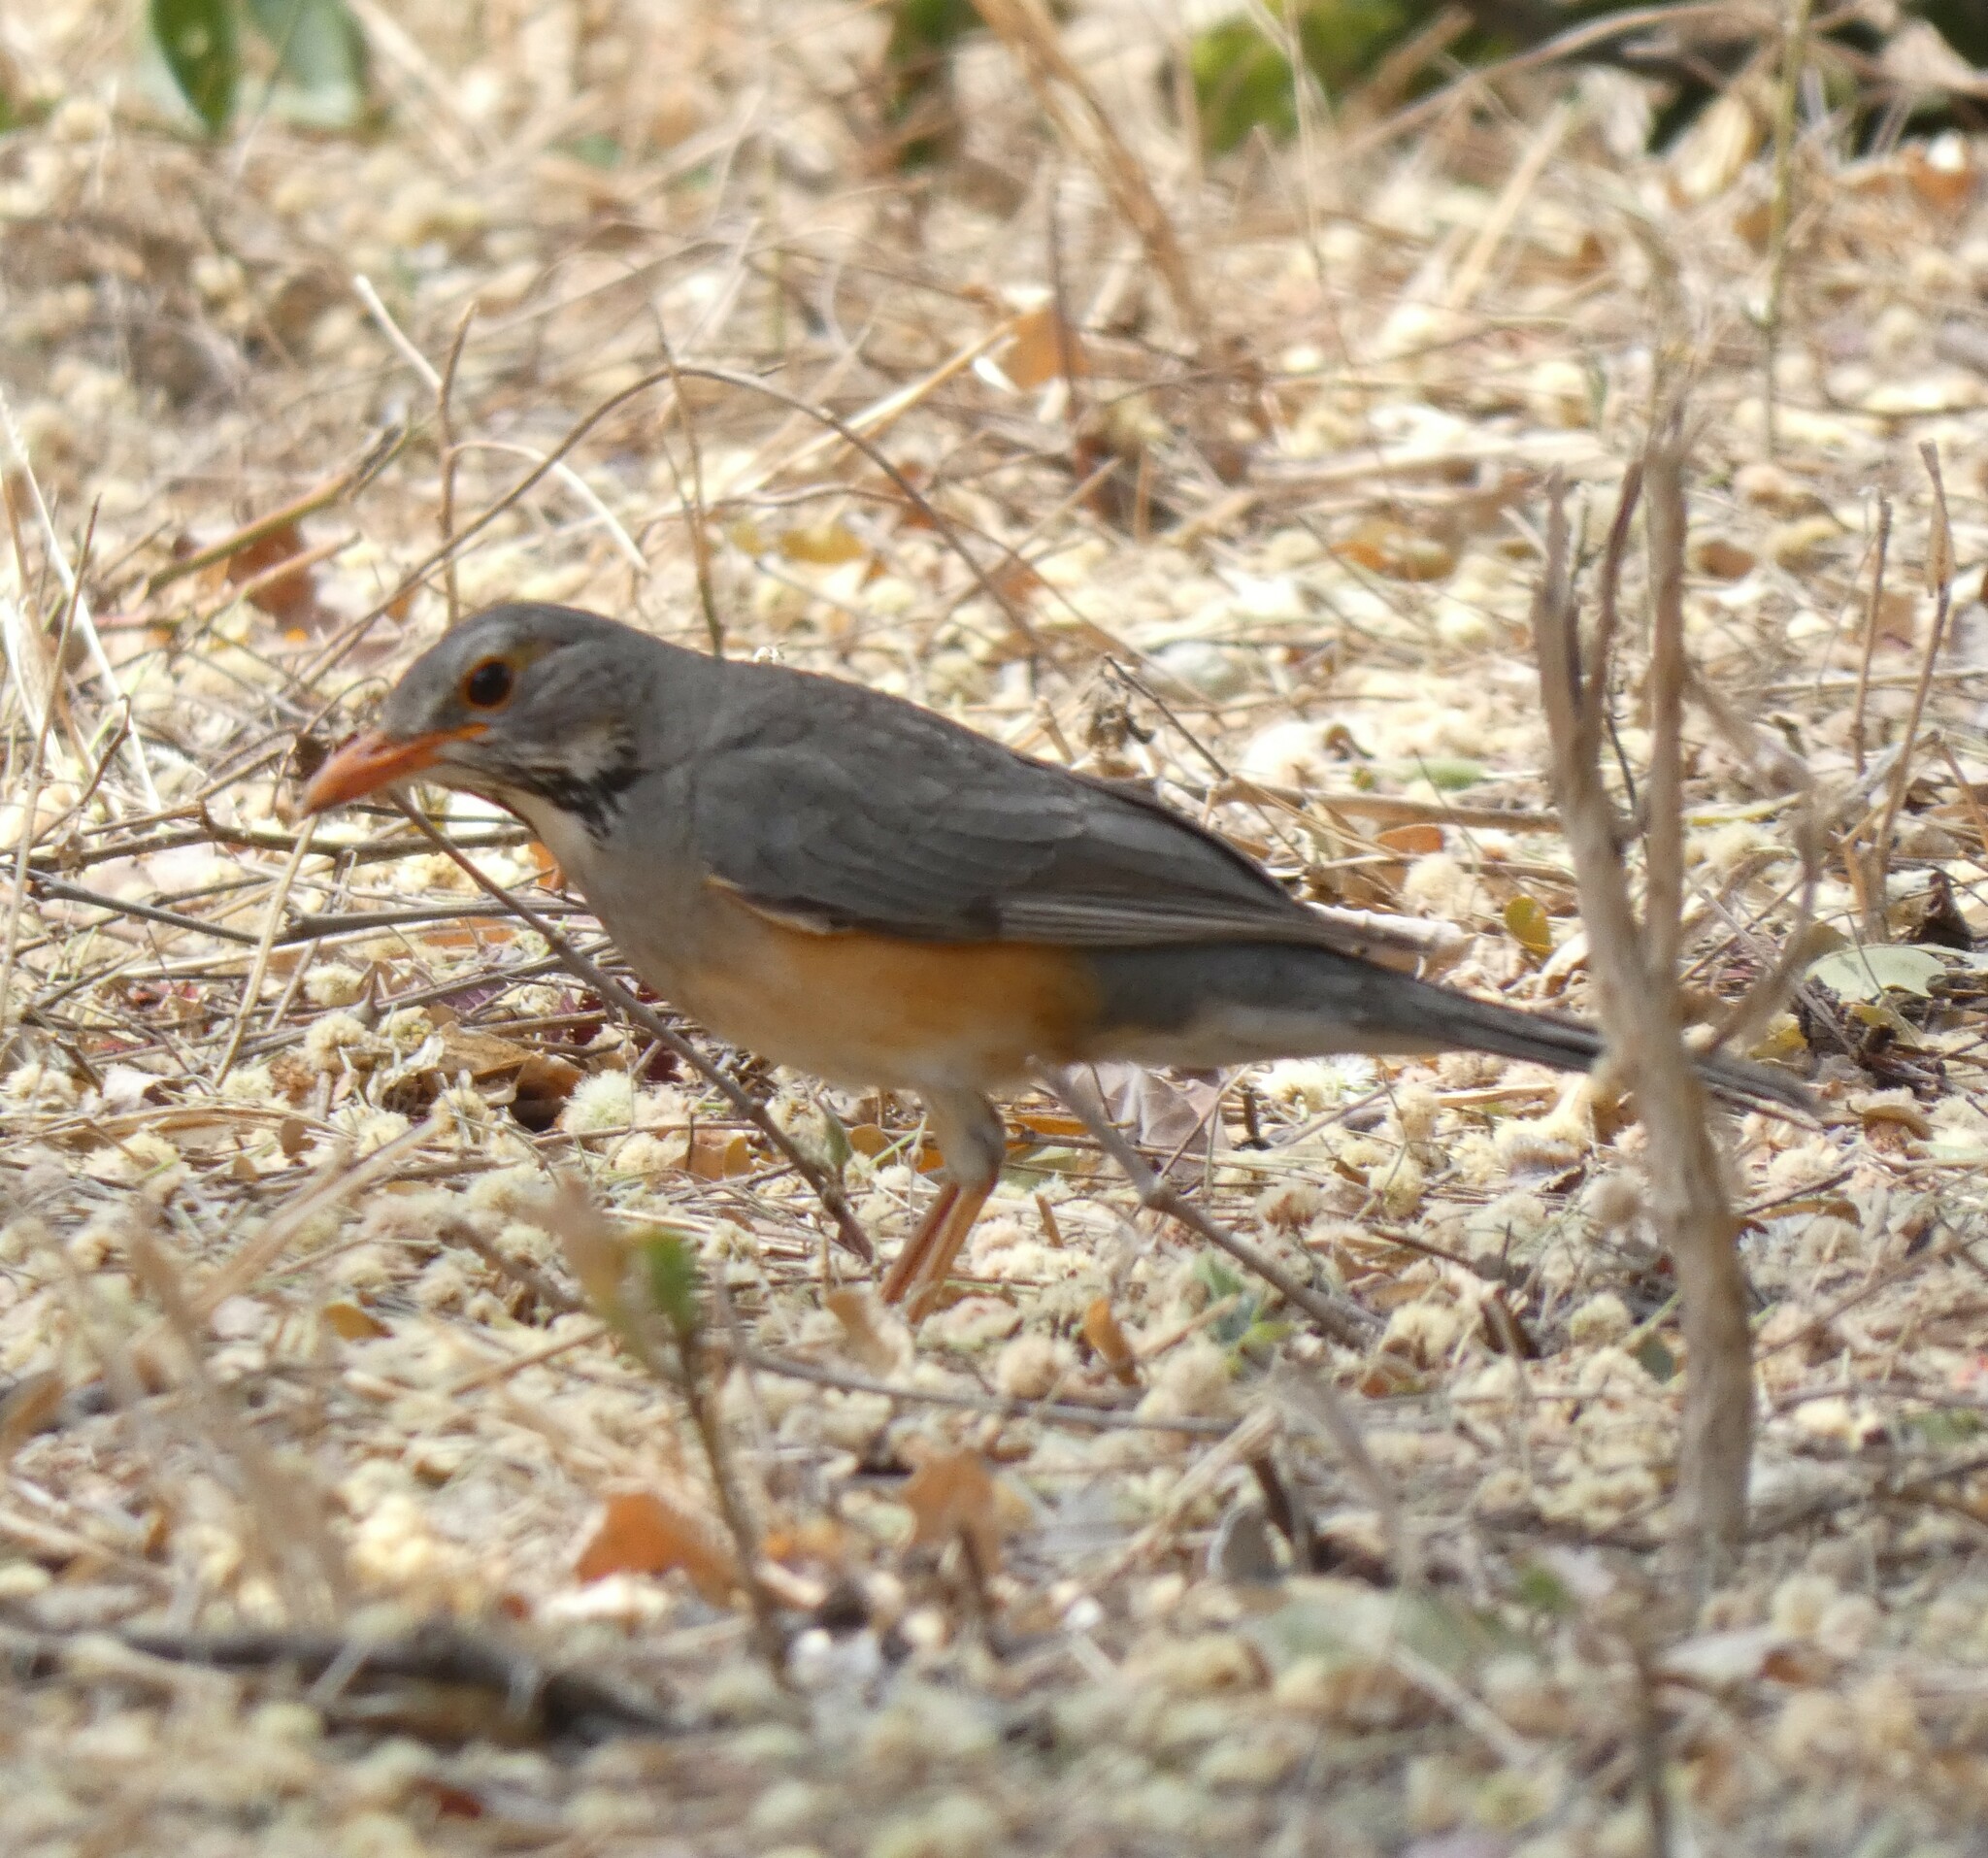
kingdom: Animalia
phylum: Chordata
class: Aves
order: Passeriformes
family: Turdidae
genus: Turdus
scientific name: Turdus libonyana
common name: Kurrichane thrush
